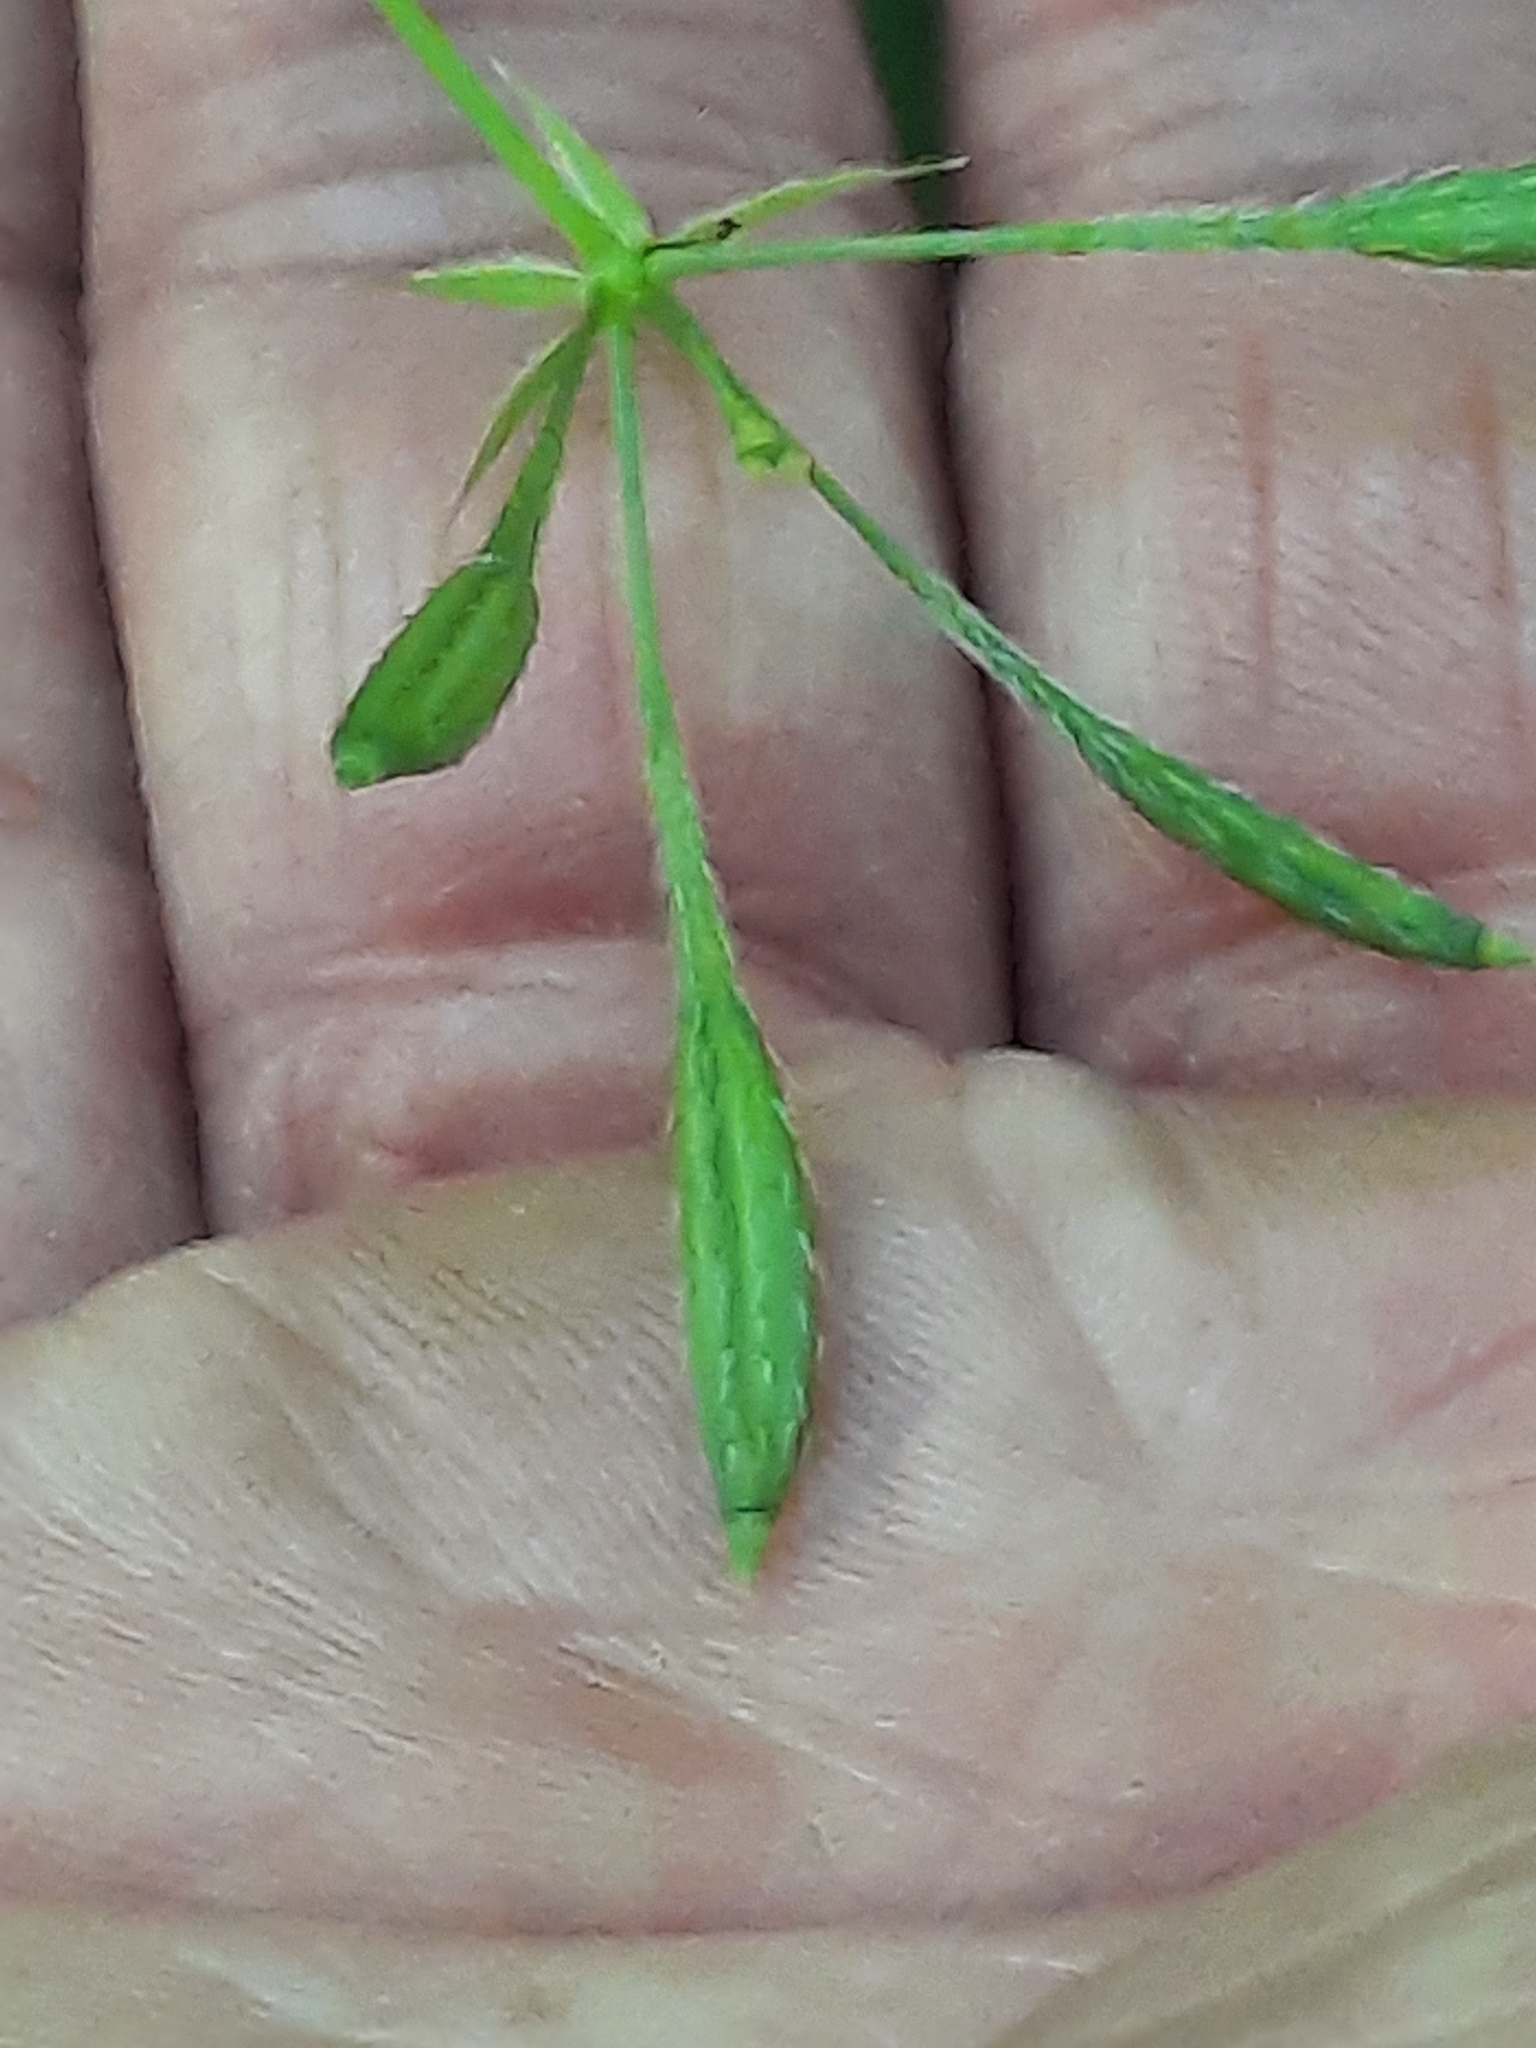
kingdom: Plantae
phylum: Tracheophyta
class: Magnoliopsida
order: Apiales
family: Apiaceae
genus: Osmorhiza
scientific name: Osmorhiza claytonii
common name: Hairy sweet cicely
